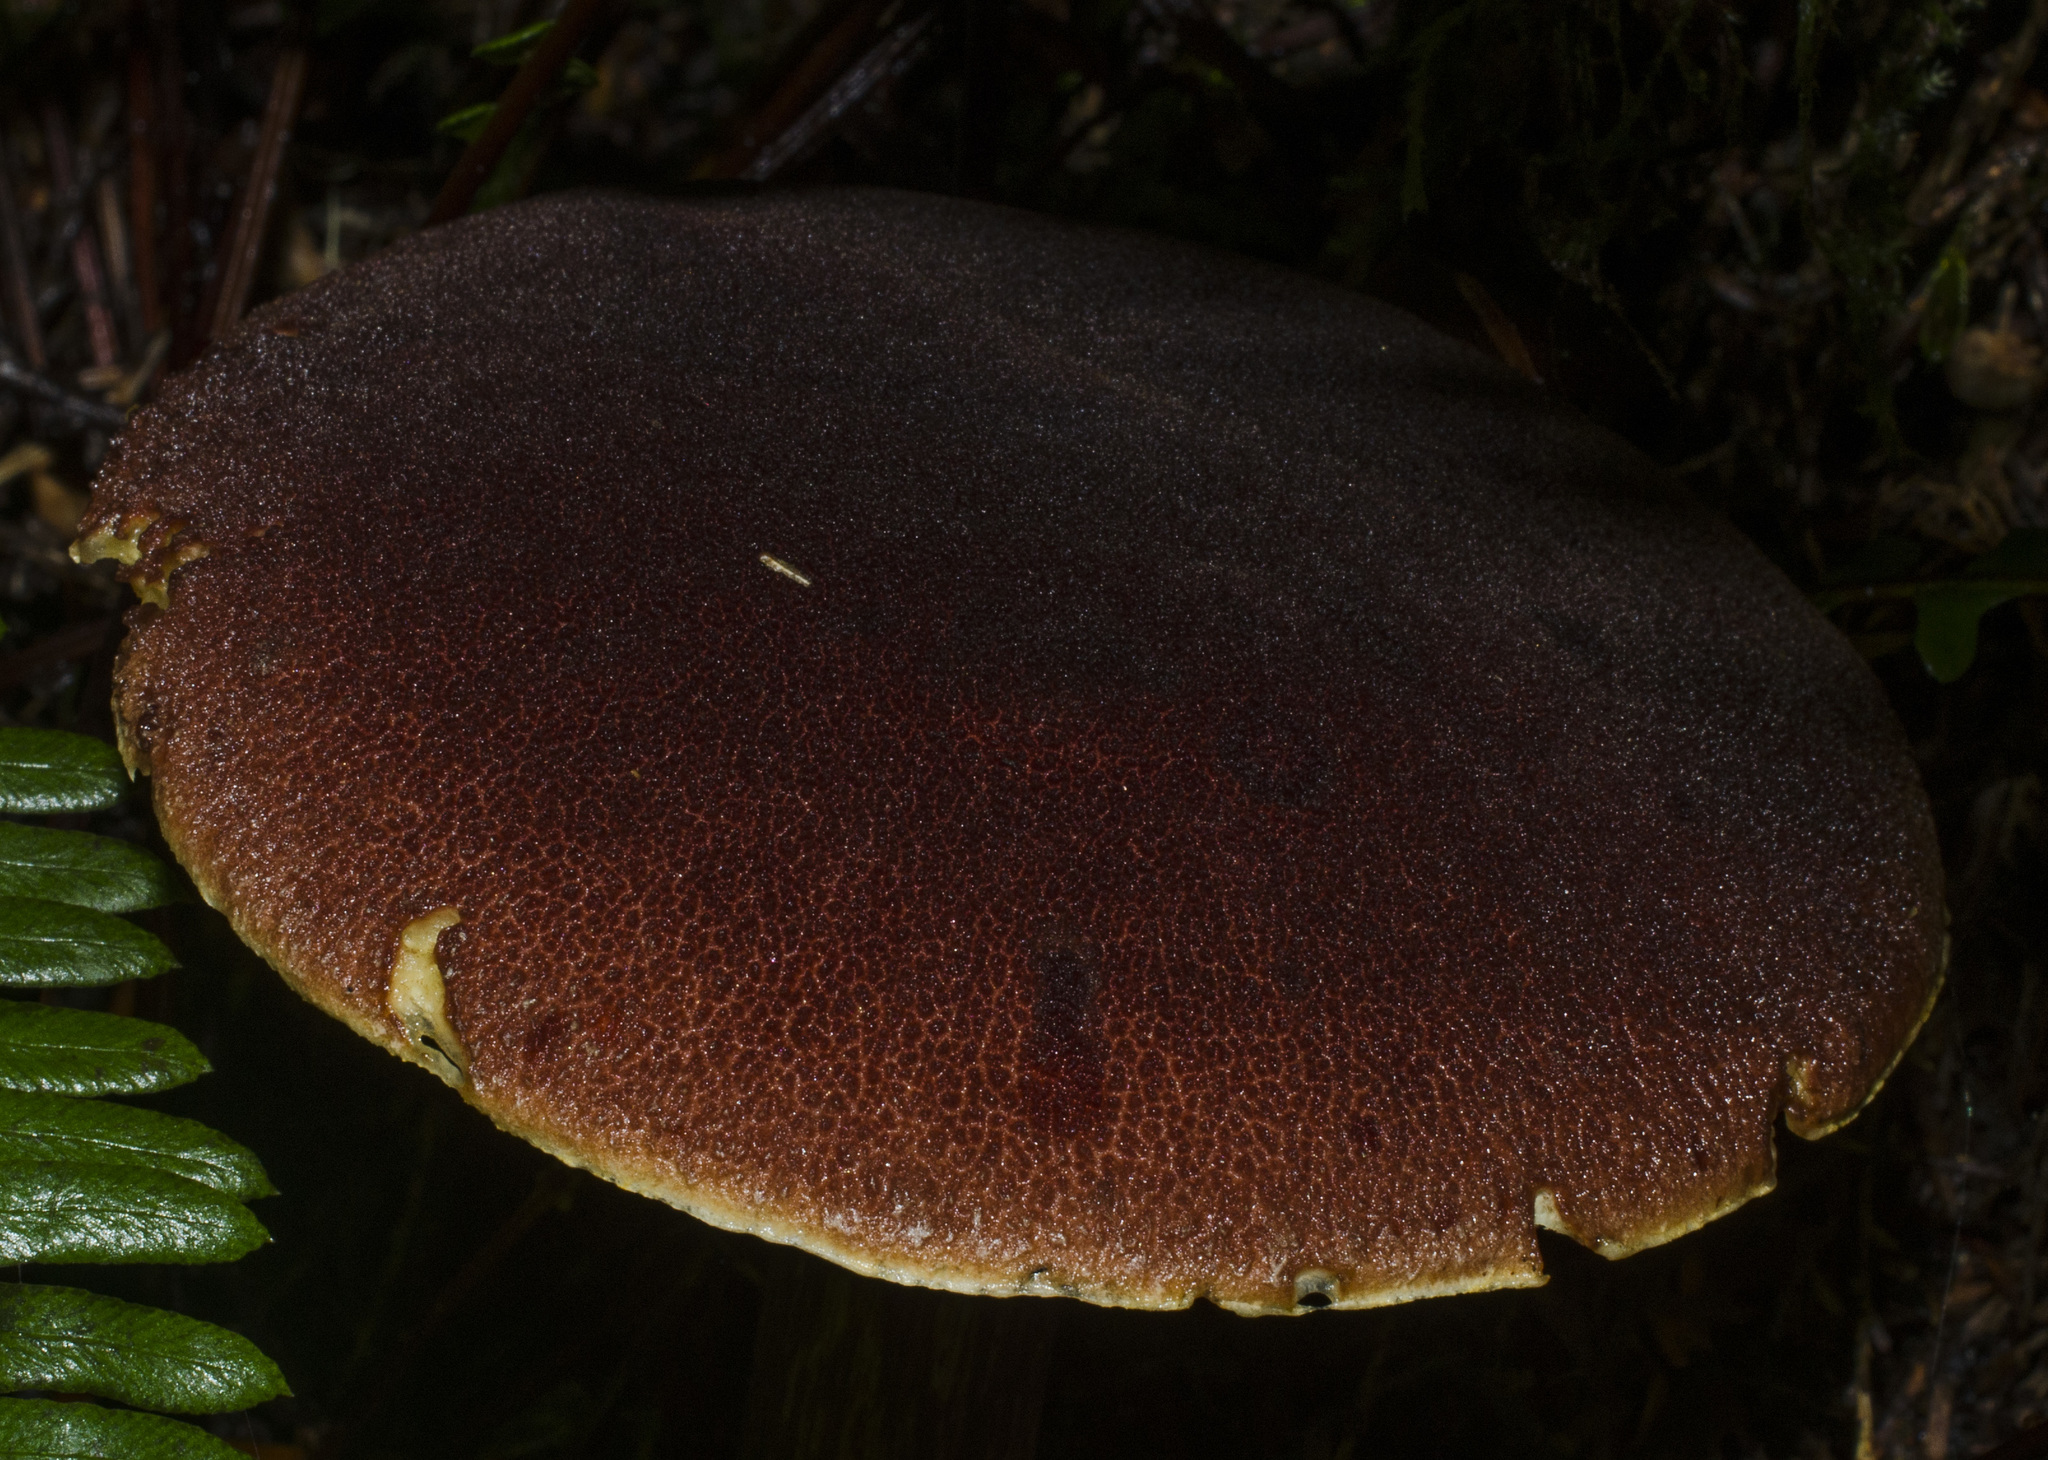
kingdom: Fungi
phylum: Basidiomycota
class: Agaricomycetes
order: Boletales
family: Boletaceae
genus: Aureoboletus
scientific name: Aureoboletus mirabilis
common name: Admirable bolete
